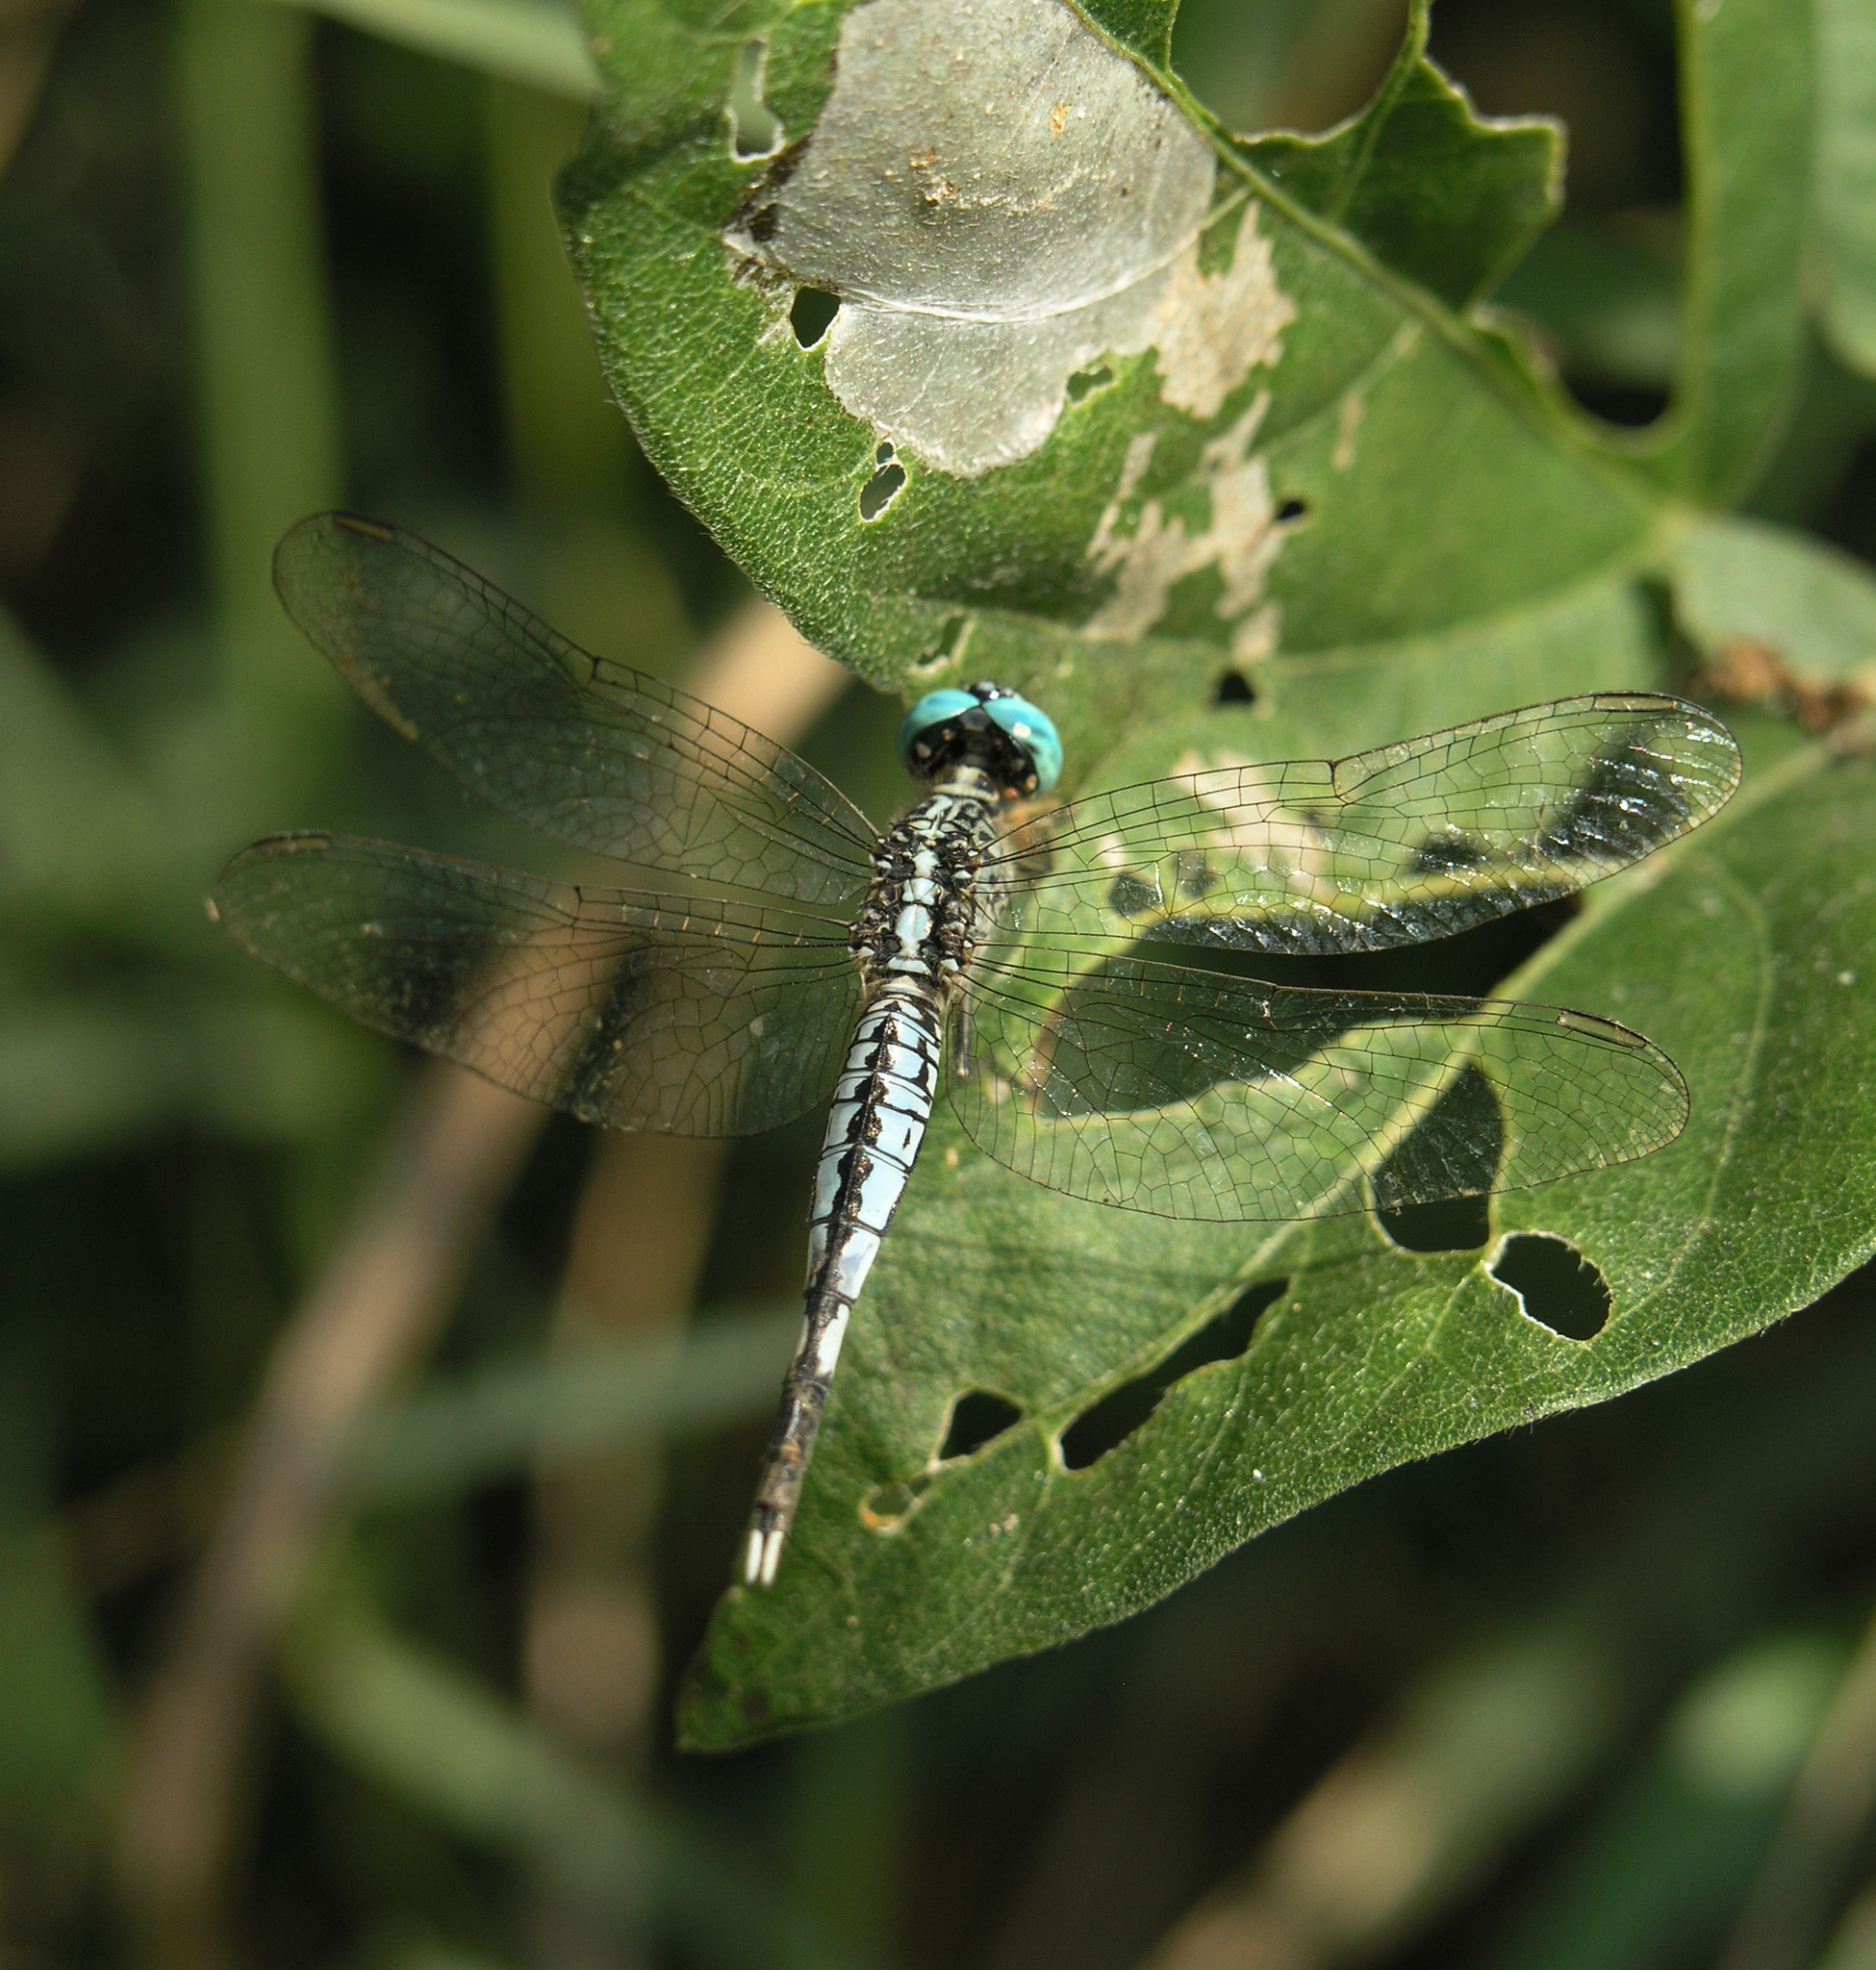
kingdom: Animalia
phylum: Arthropoda
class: Insecta
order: Odonata
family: Libellulidae
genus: Acisoma
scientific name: Acisoma panorpoides
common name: Asian pintail
